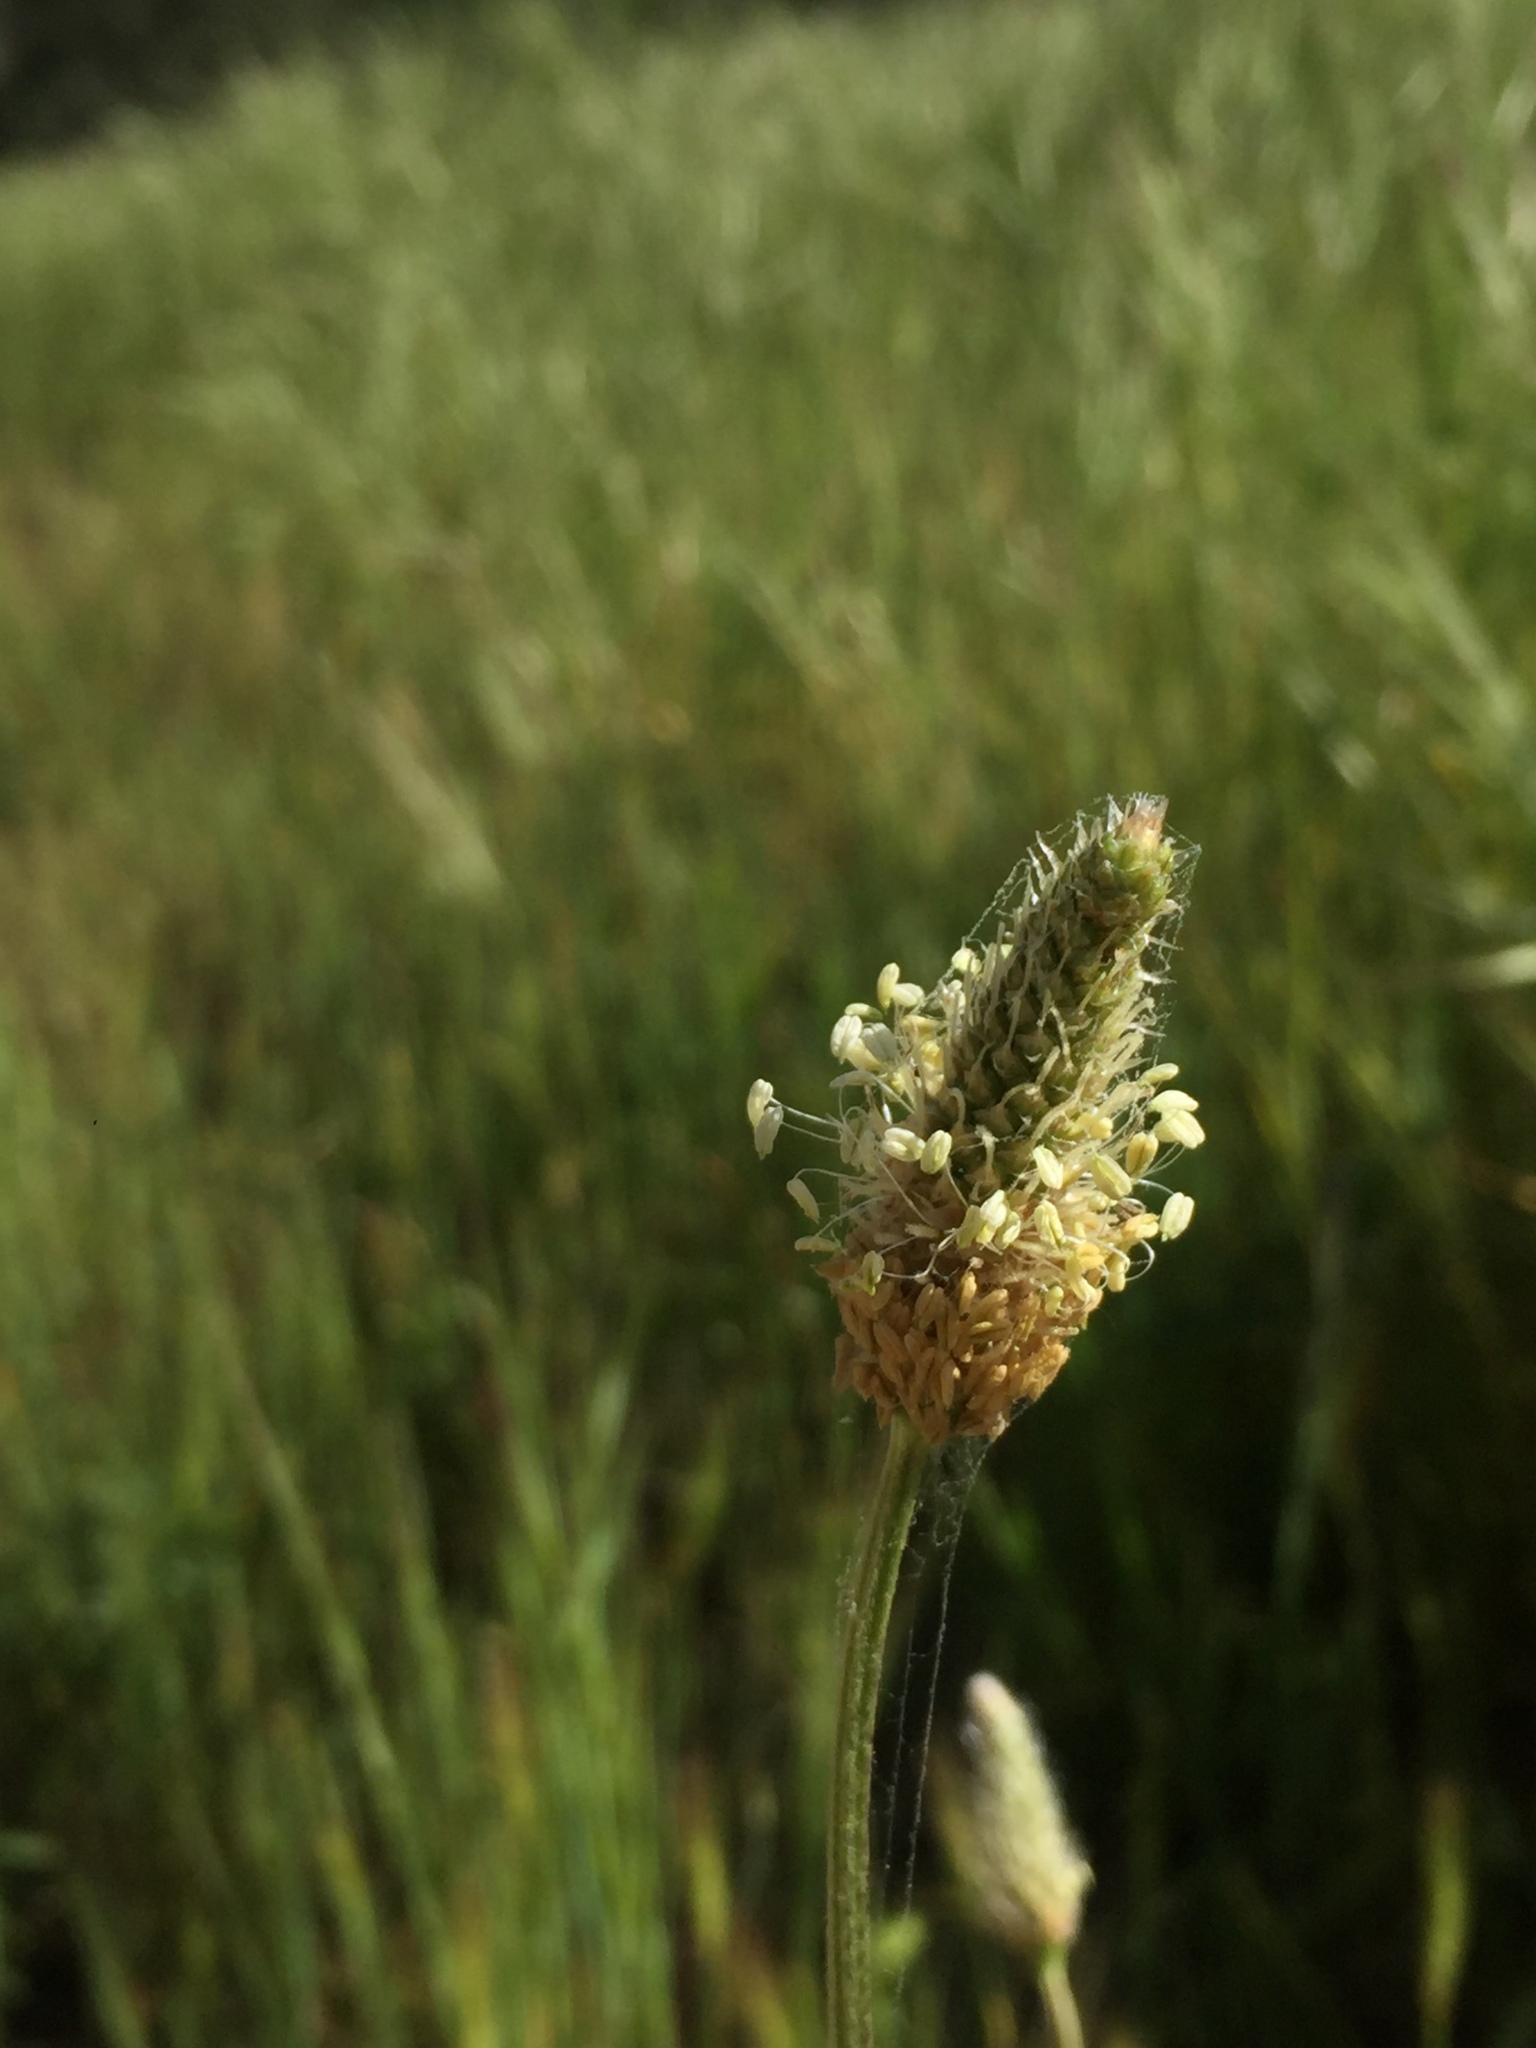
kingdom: Plantae
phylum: Tracheophyta
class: Magnoliopsida
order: Lamiales
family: Plantaginaceae
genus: Plantago
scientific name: Plantago lanceolata
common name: Ribwort plantain
